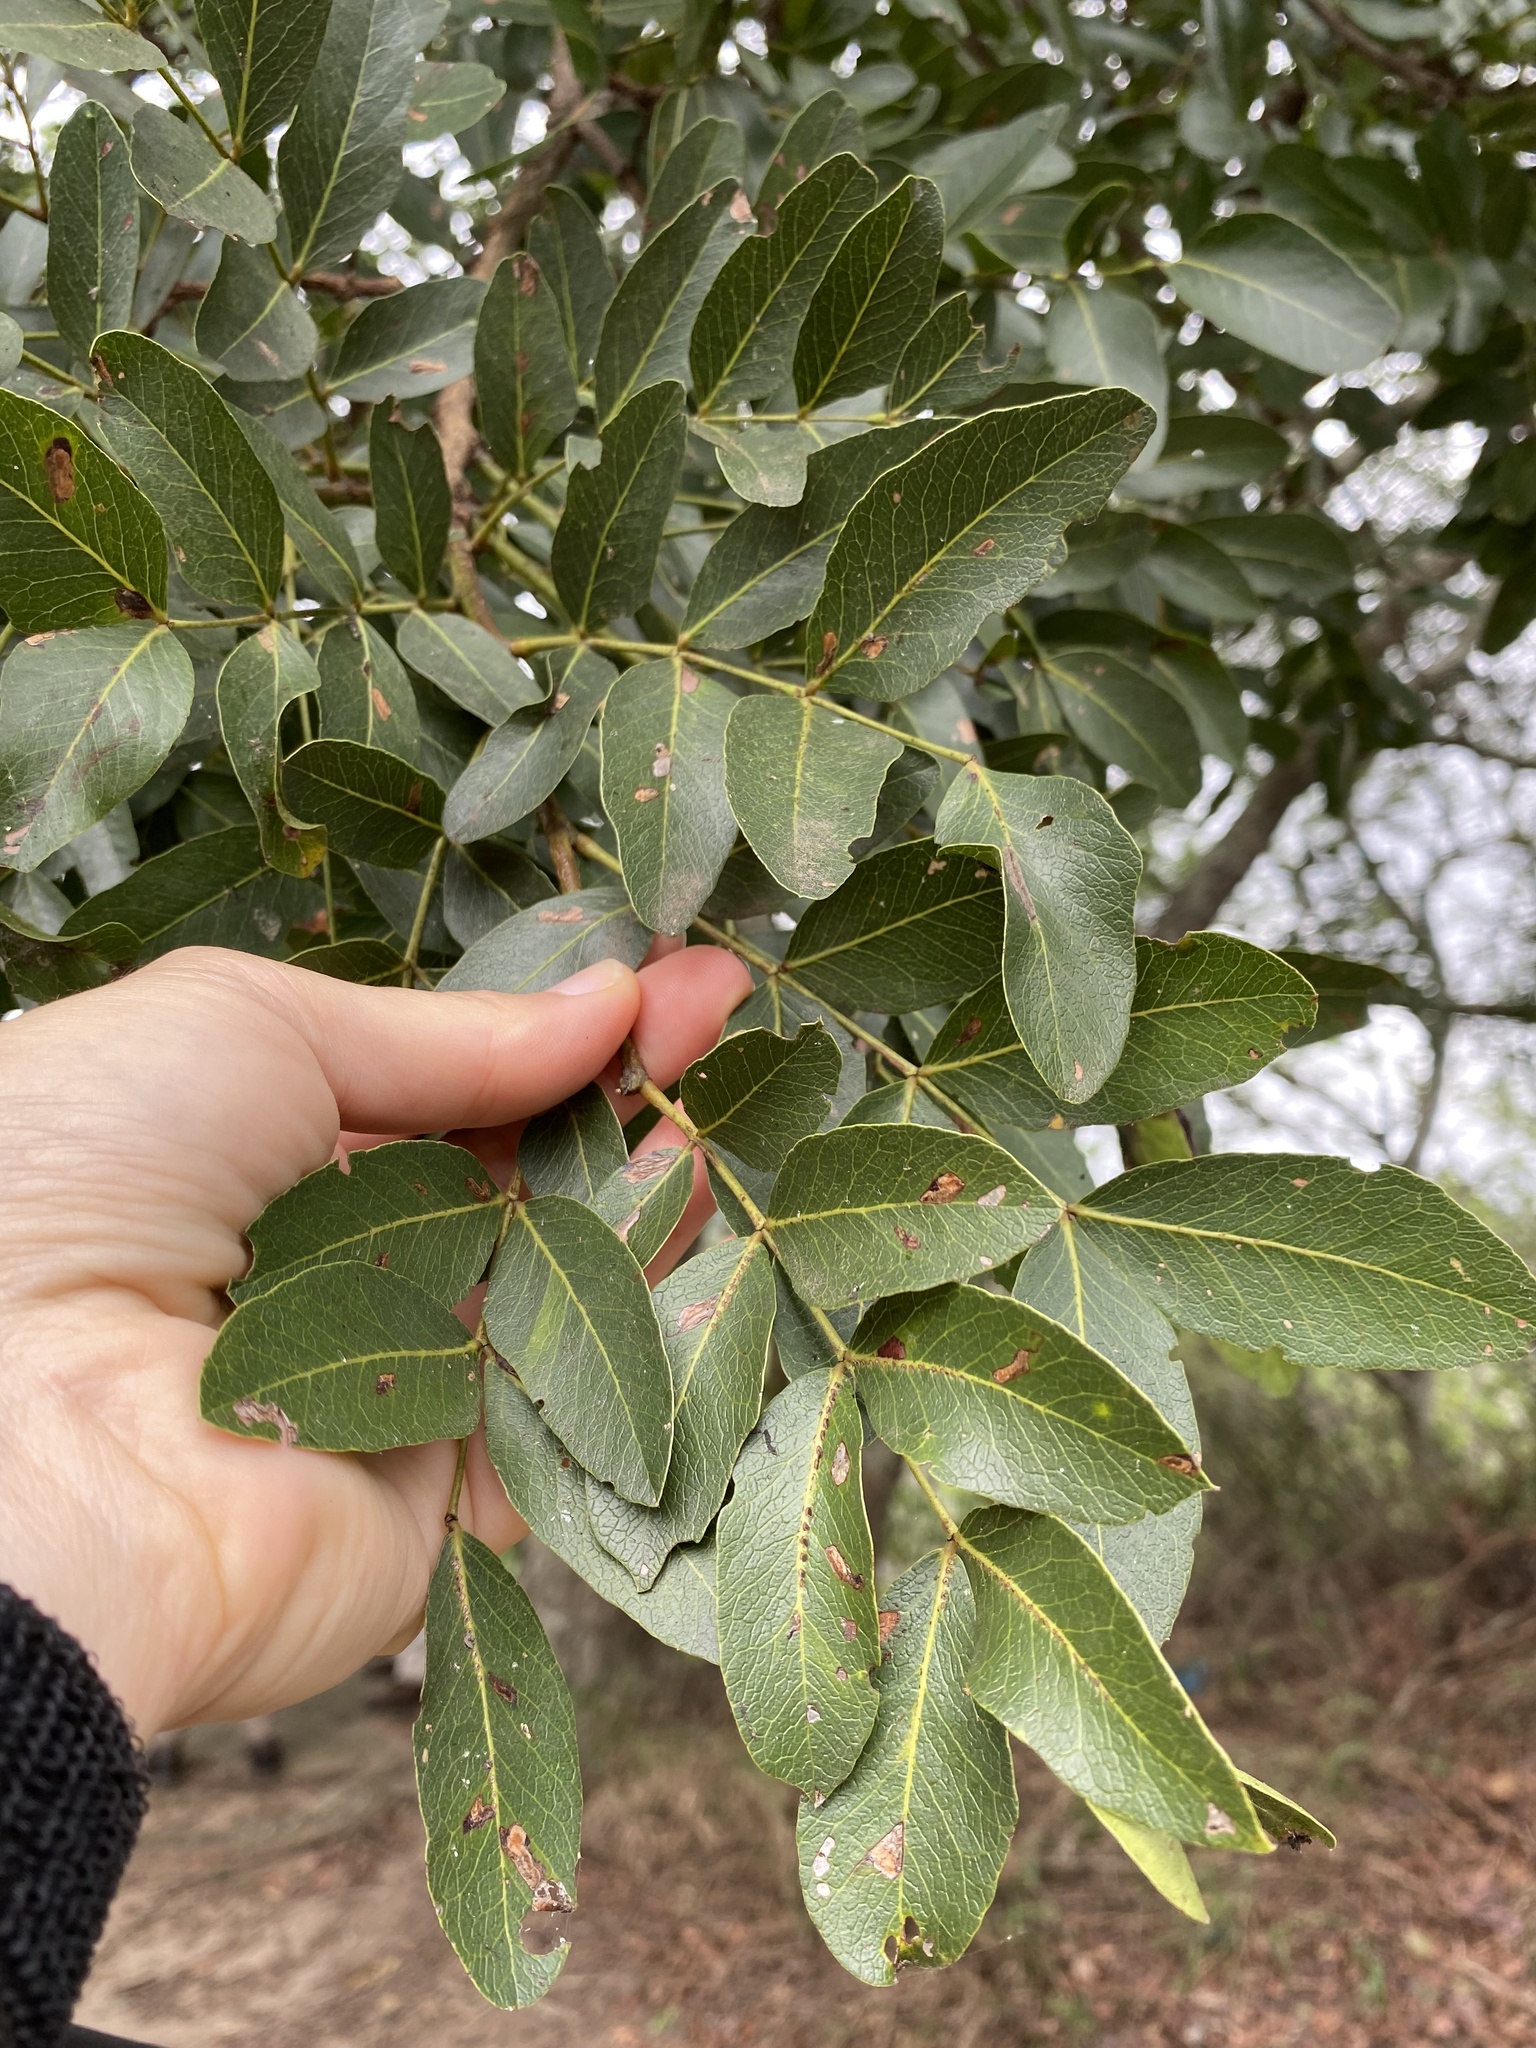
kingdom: Plantae
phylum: Tracheophyta
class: Magnoliopsida
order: Fabales
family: Fabaceae
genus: Schotia
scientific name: Schotia brachypetala
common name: Weeping boer-bean
